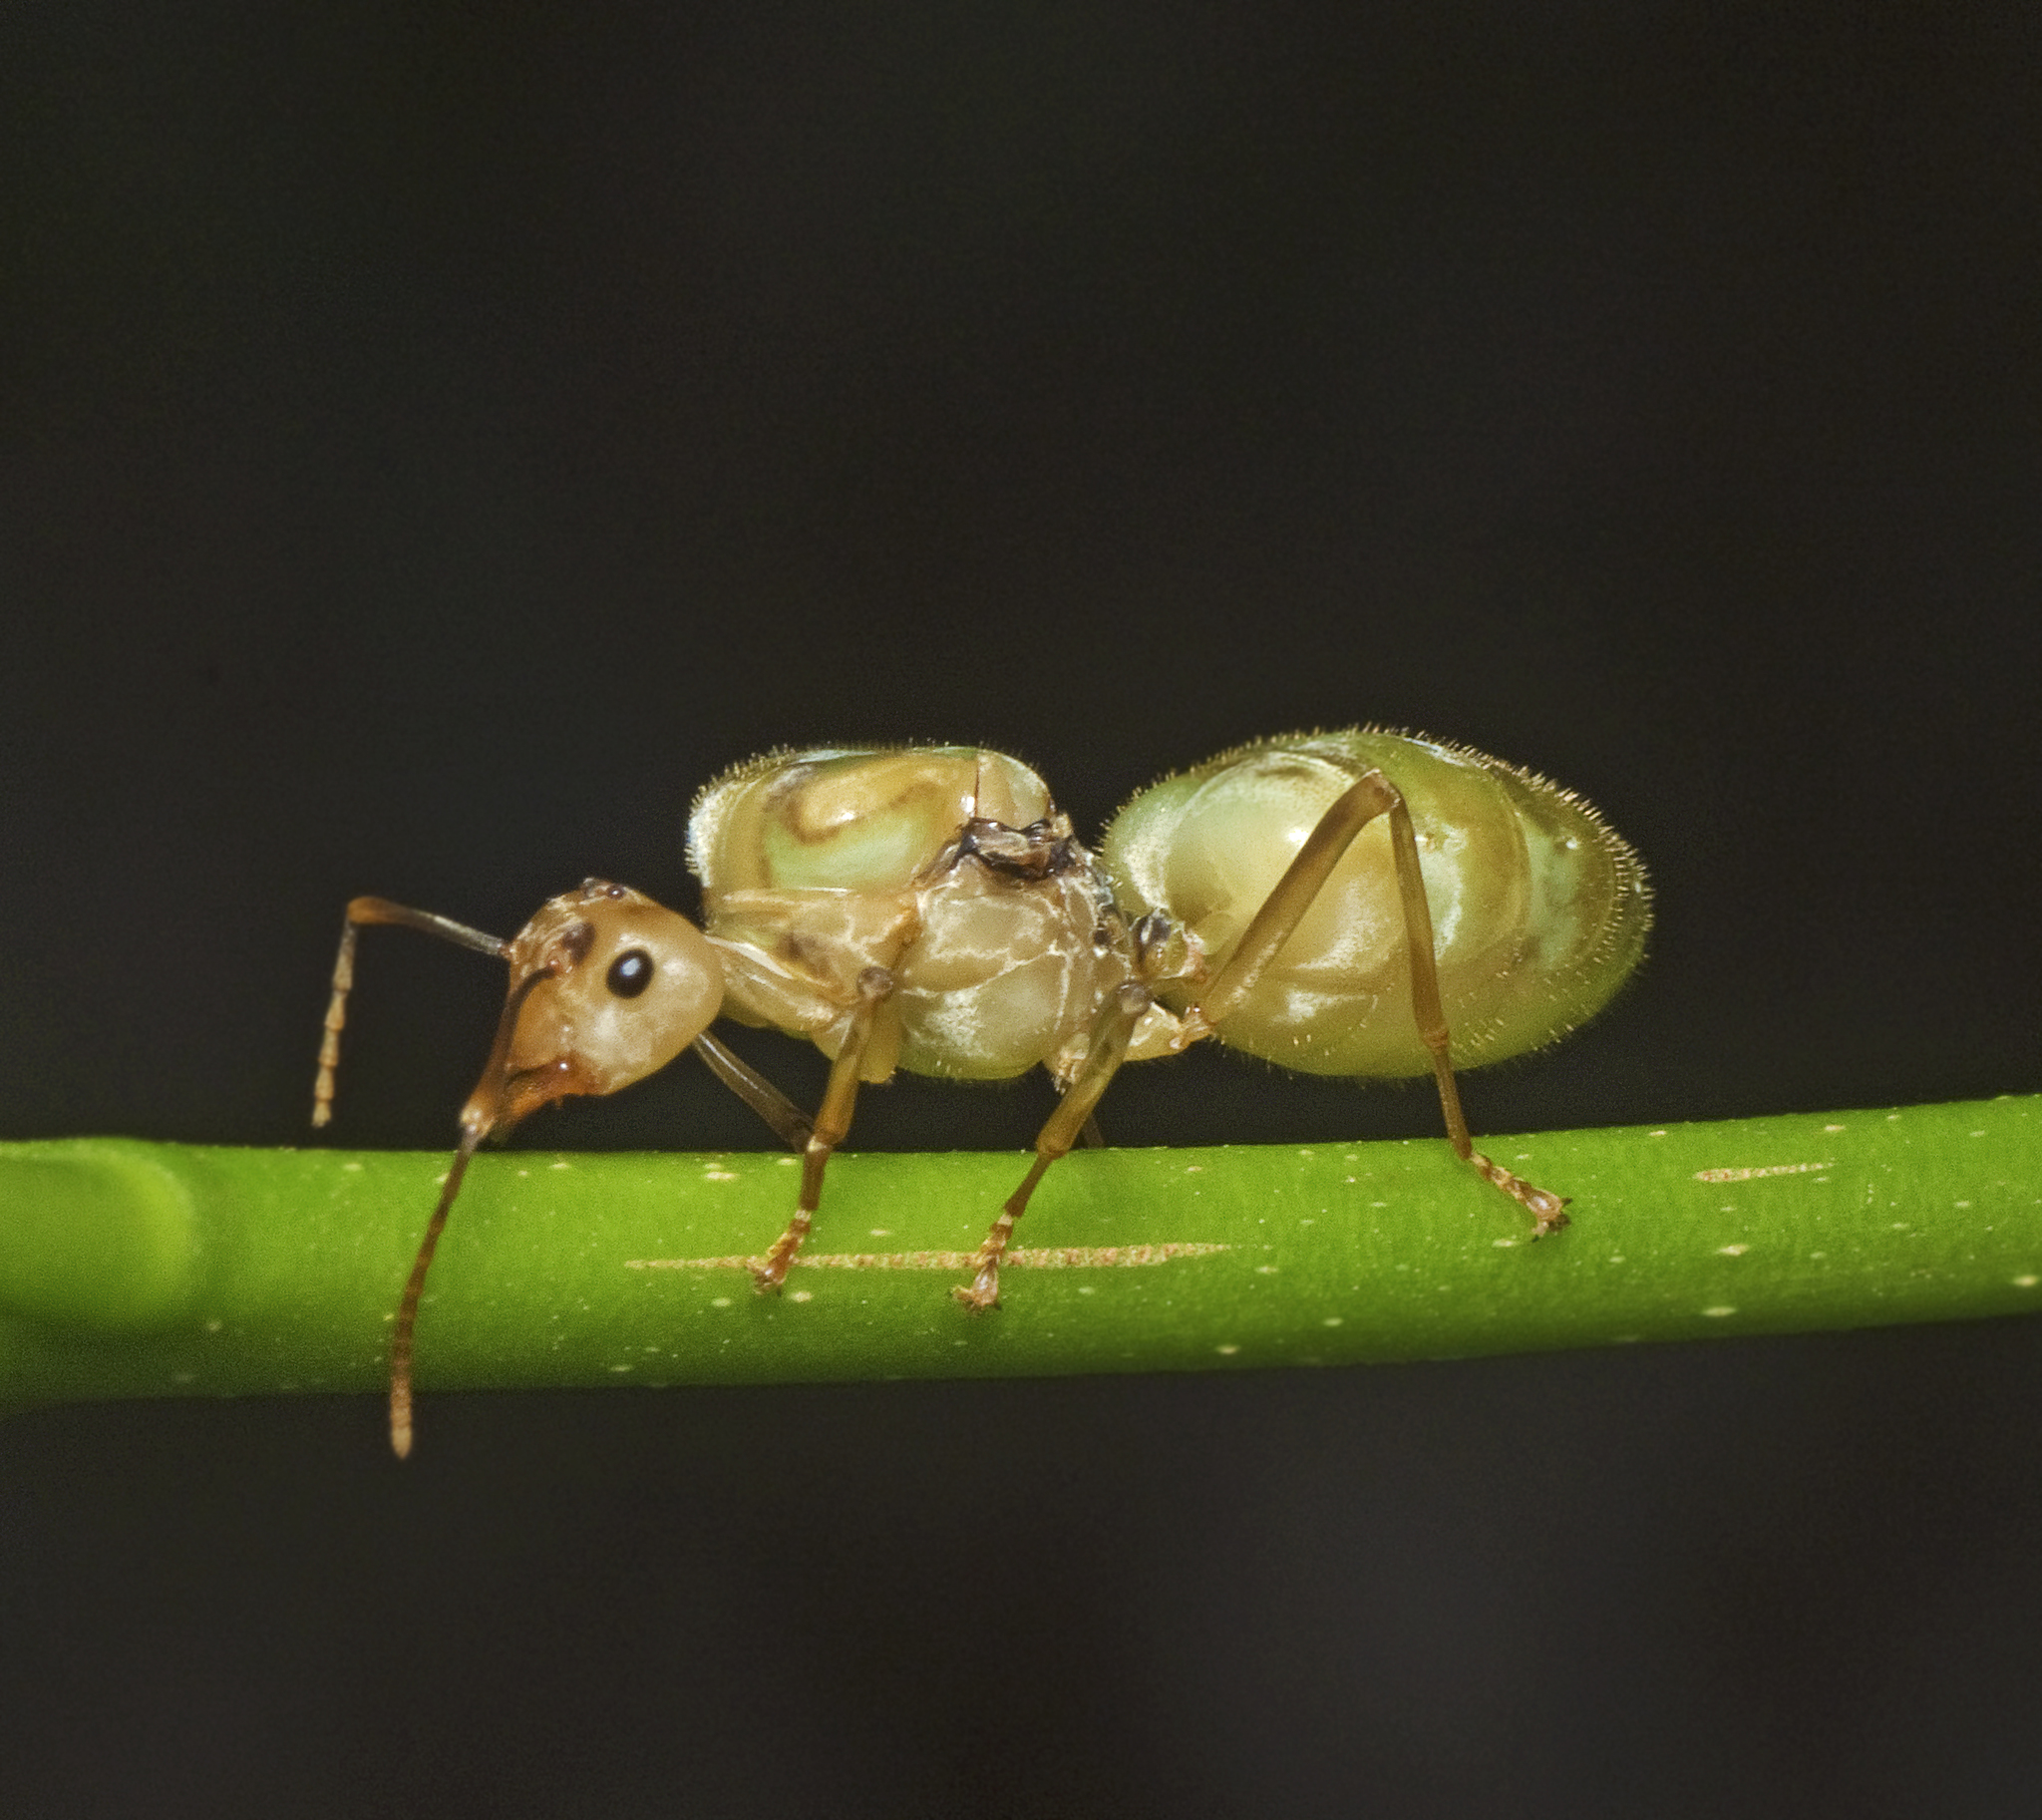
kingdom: Animalia
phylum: Arthropoda
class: Insecta
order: Hymenoptera
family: Formicidae
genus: Oecophylla
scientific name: Oecophylla smaragdina
